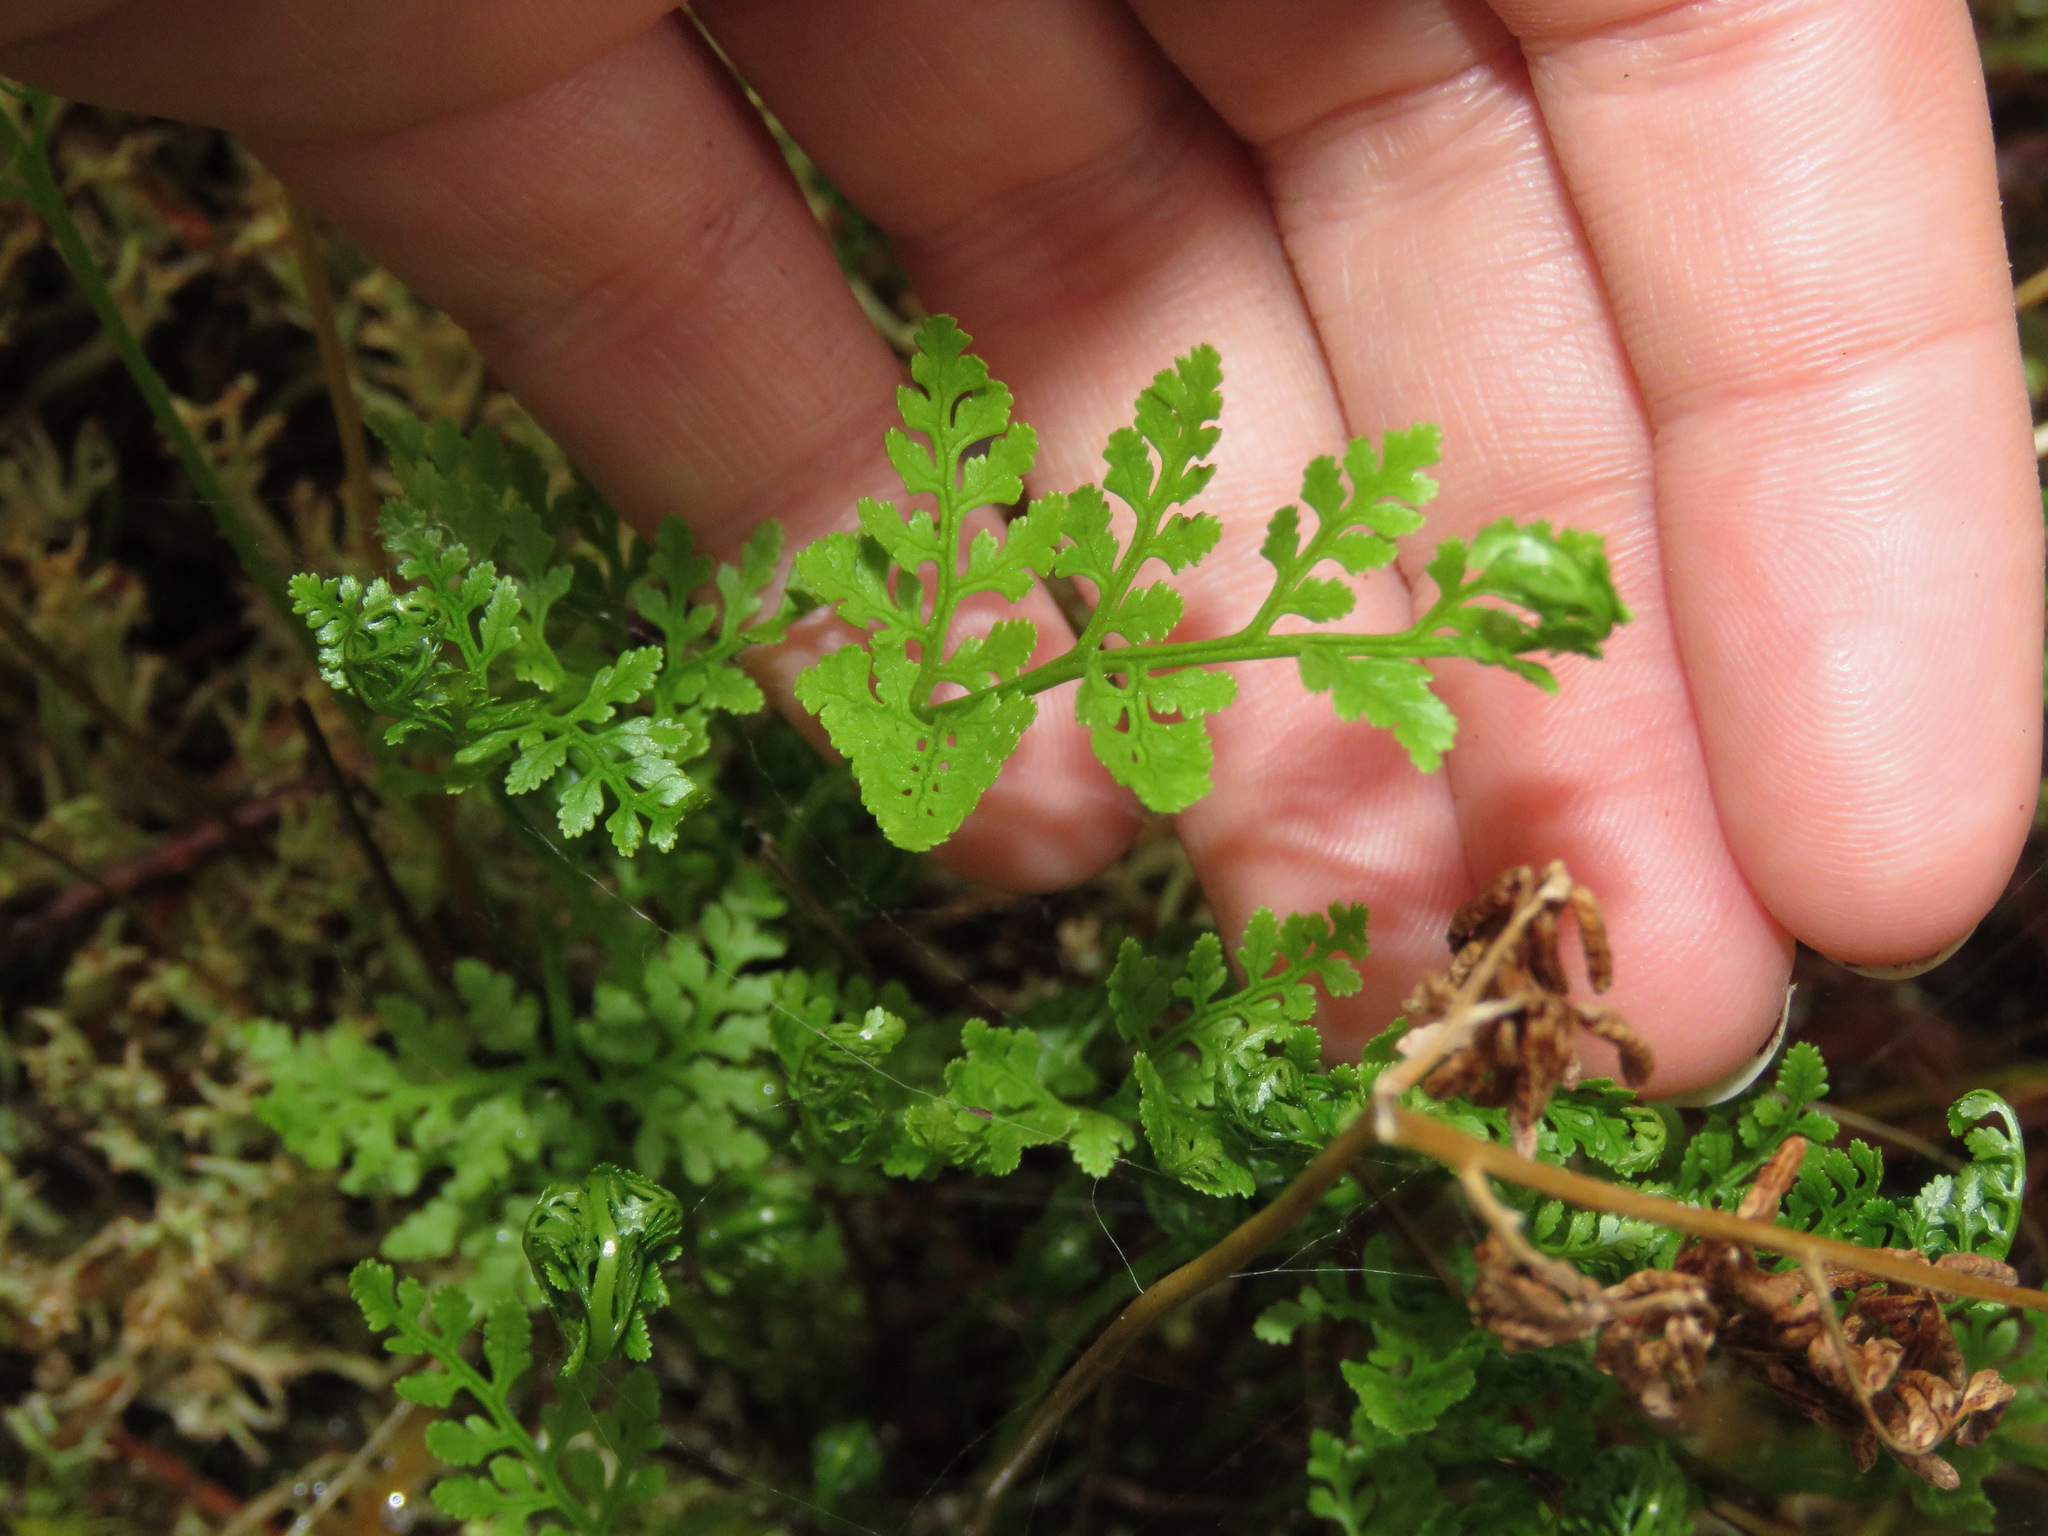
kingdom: Plantae
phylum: Tracheophyta
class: Polypodiopsida
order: Polypodiales
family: Pteridaceae
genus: Cryptogramma
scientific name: Cryptogramma acrostichoides
